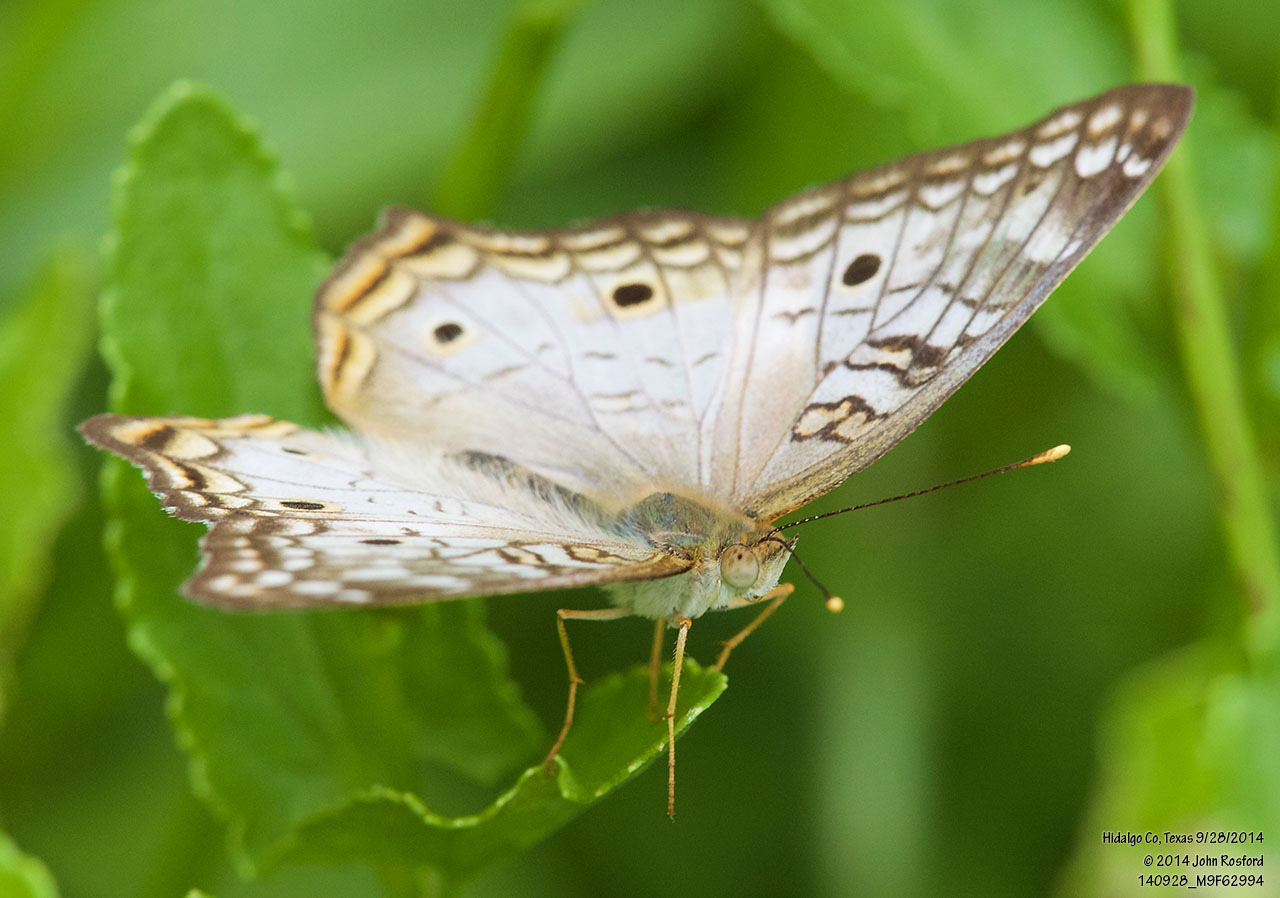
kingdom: Animalia
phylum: Arthropoda
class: Insecta
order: Lepidoptera
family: Nymphalidae
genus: Anartia
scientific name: Anartia jatrophae
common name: White peacock
